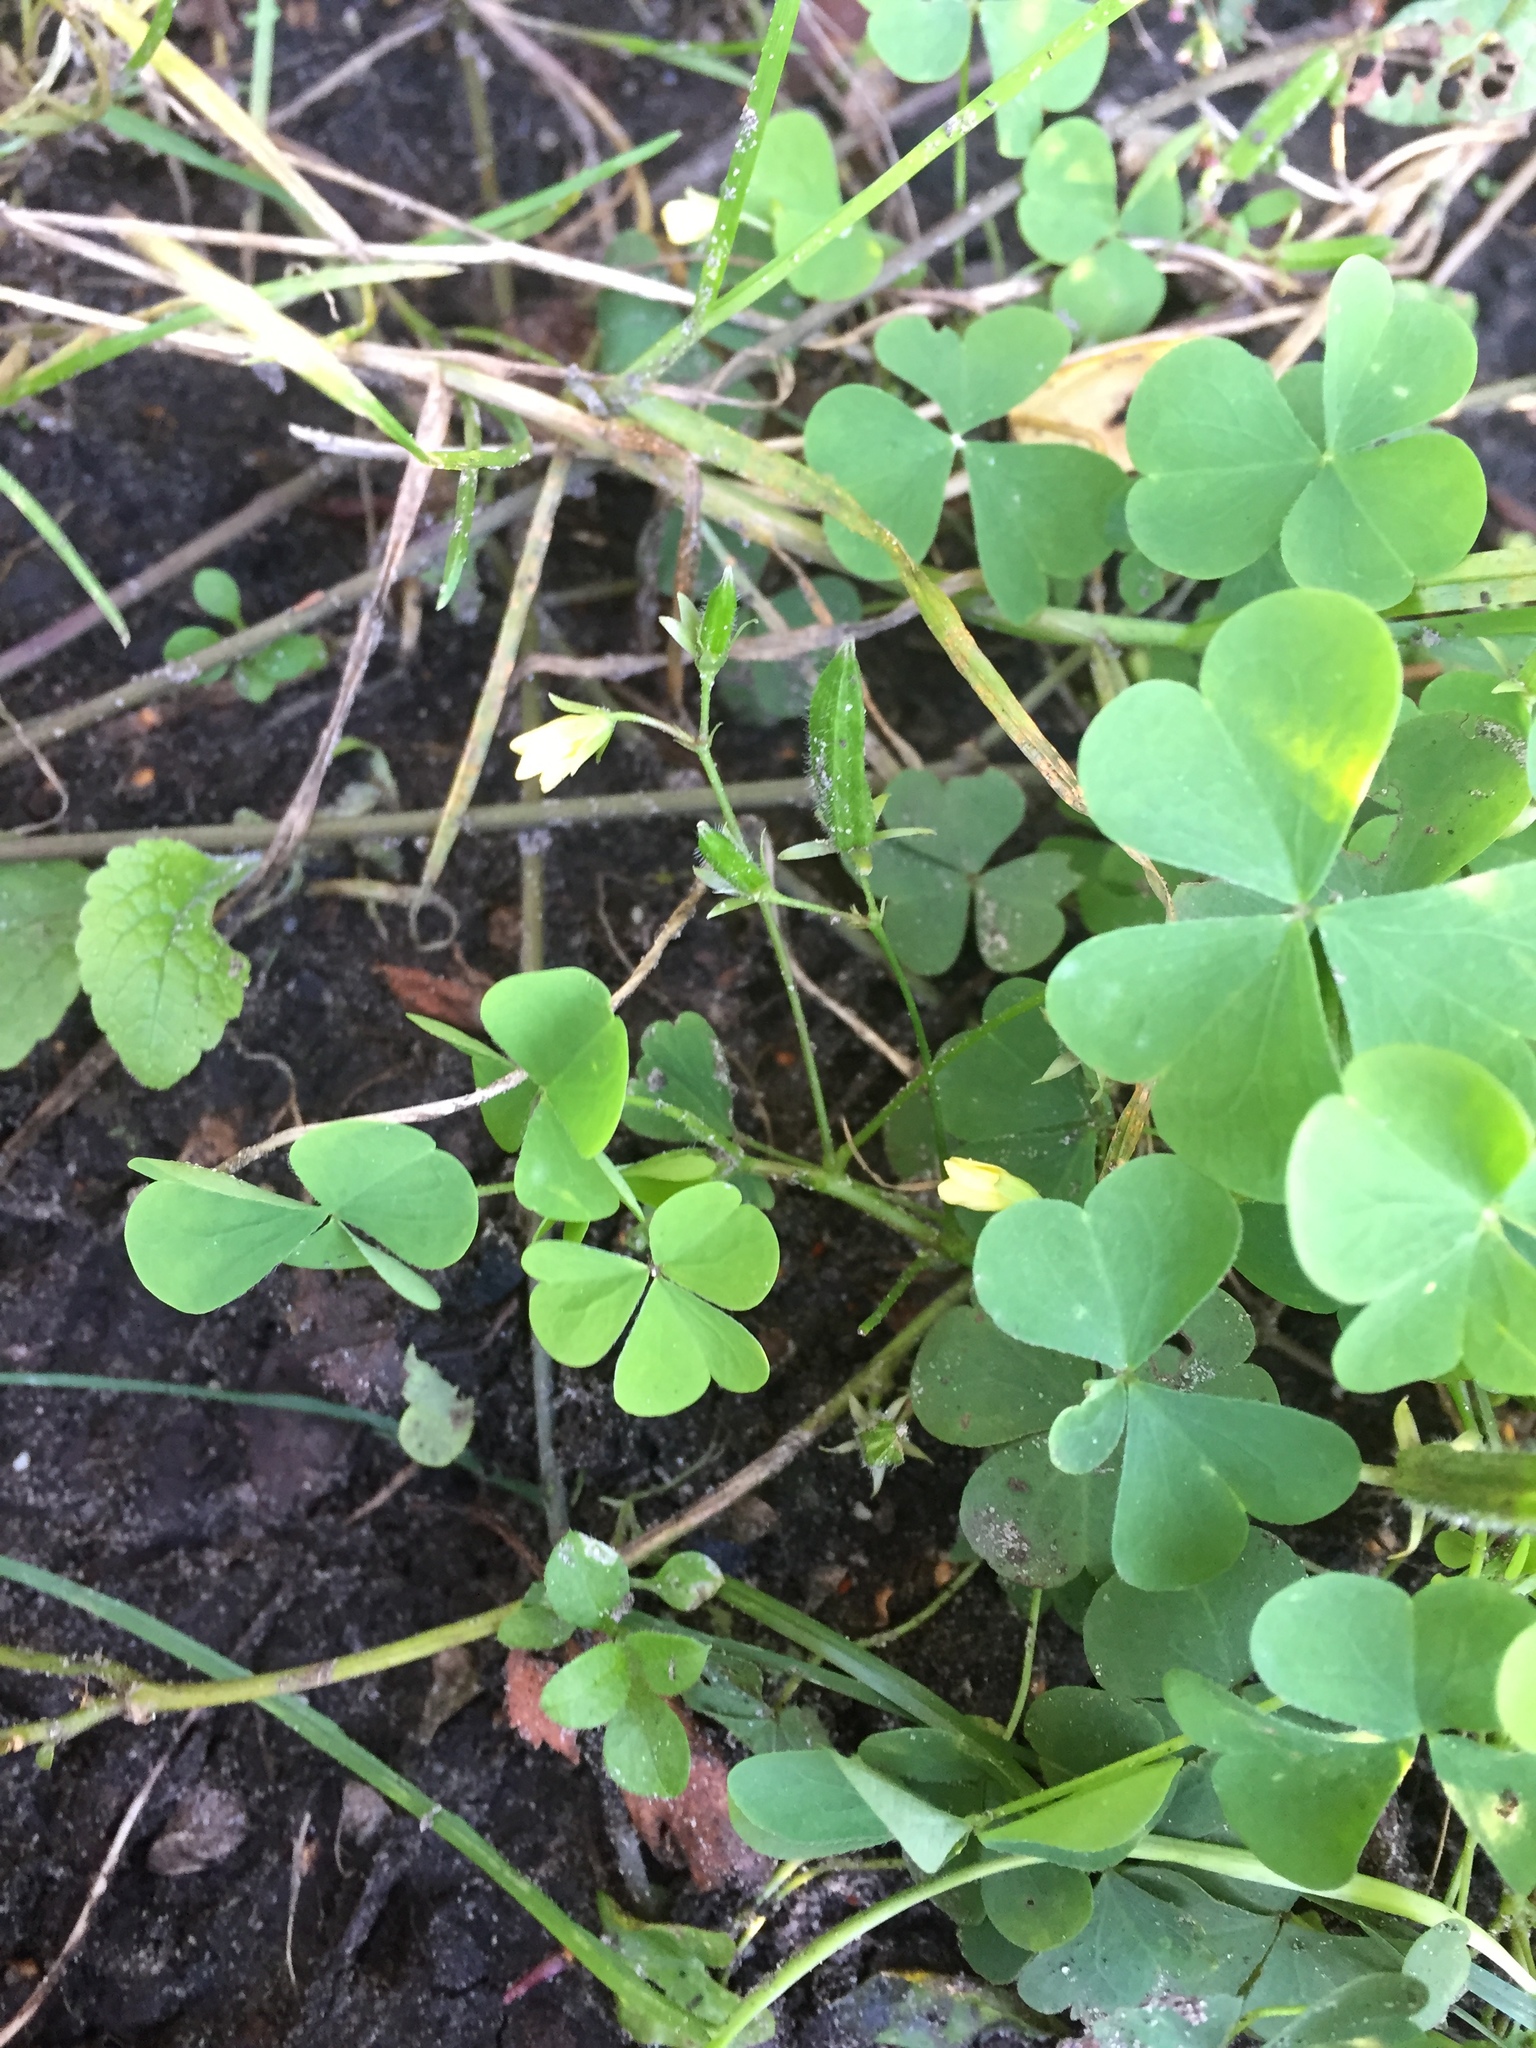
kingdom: Plantae
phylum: Tracheophyta
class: Magnoliopsida
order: Oxalidales
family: Oxalidaceae
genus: Oxalis
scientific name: Oxalis stricta
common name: Upright yellow-sorrel
